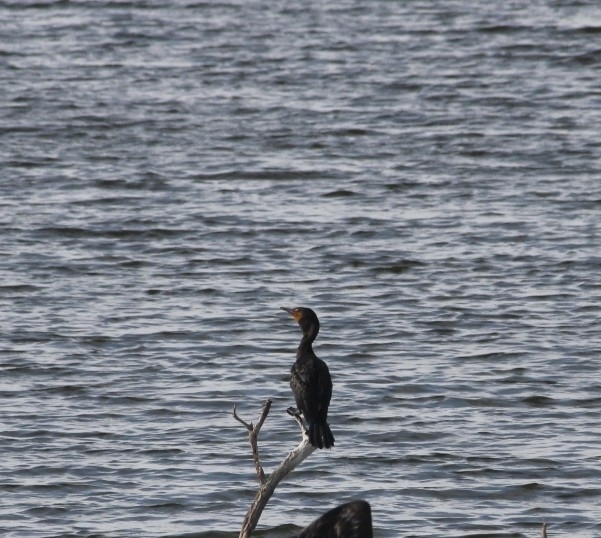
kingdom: Animalia
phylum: Chordata
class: Aves
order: Suliformes
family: Phalacrocoracidae
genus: Phalacrocorax
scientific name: Phalacrocorax auritus
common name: Double-crested cormorant
